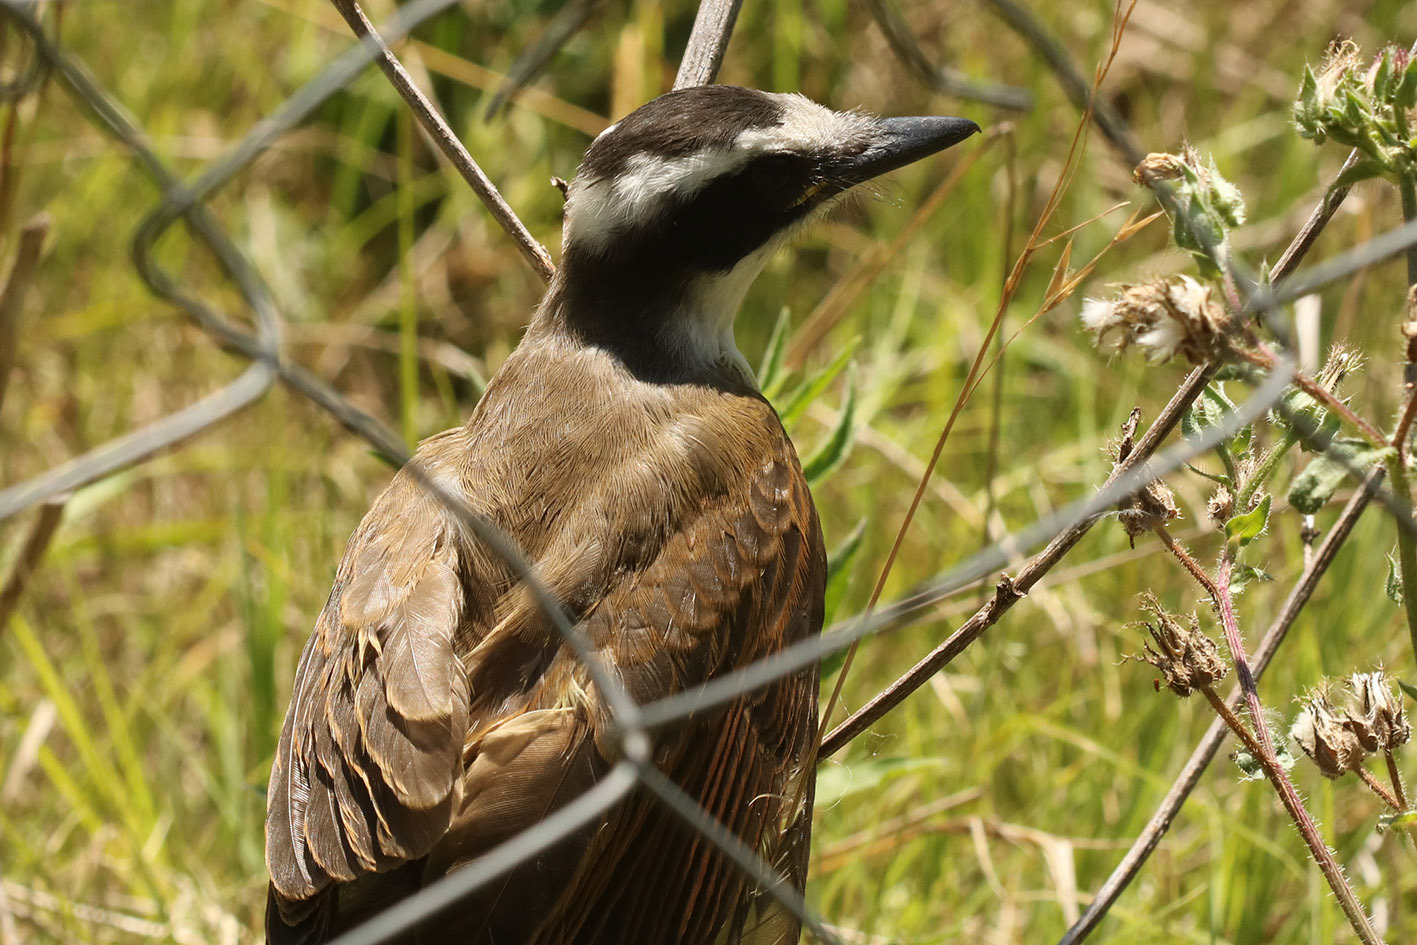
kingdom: Animalia
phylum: Chordata
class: Aves
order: Passeriformes
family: Tyrannidae
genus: Pitangus
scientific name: Pitangus sulphuratus
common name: Great kiskadee
